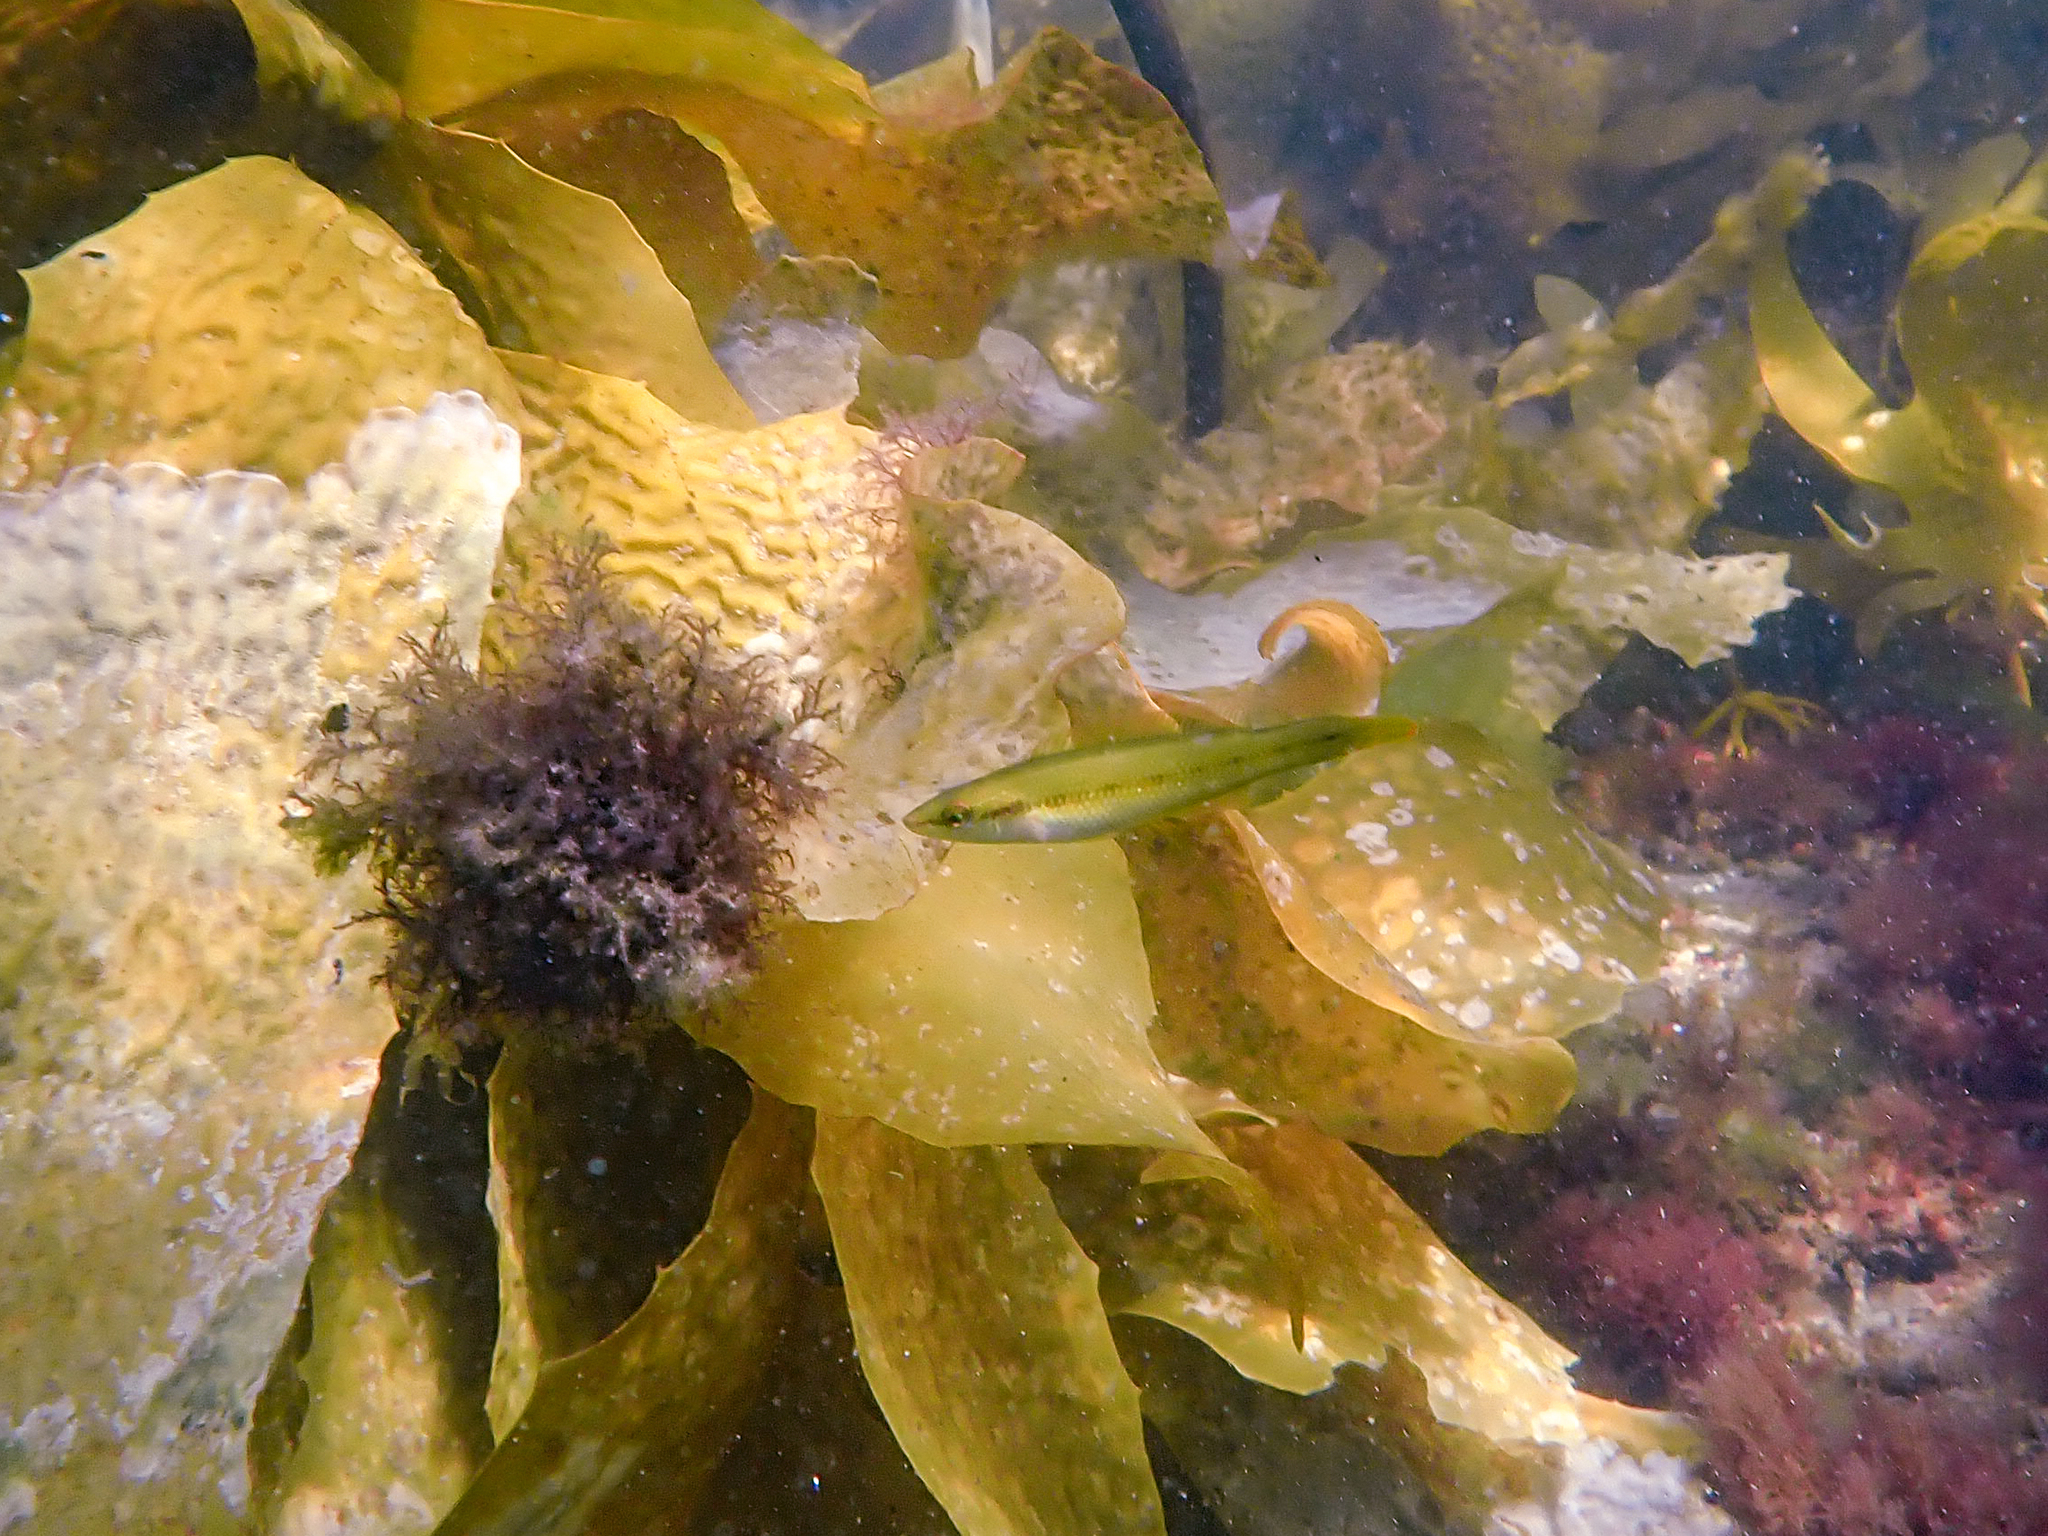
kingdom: Animalia
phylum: Chordata
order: Perciformes
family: Odacidae
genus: Neoodax
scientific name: Neoodax balteatus
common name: Ground mullet
